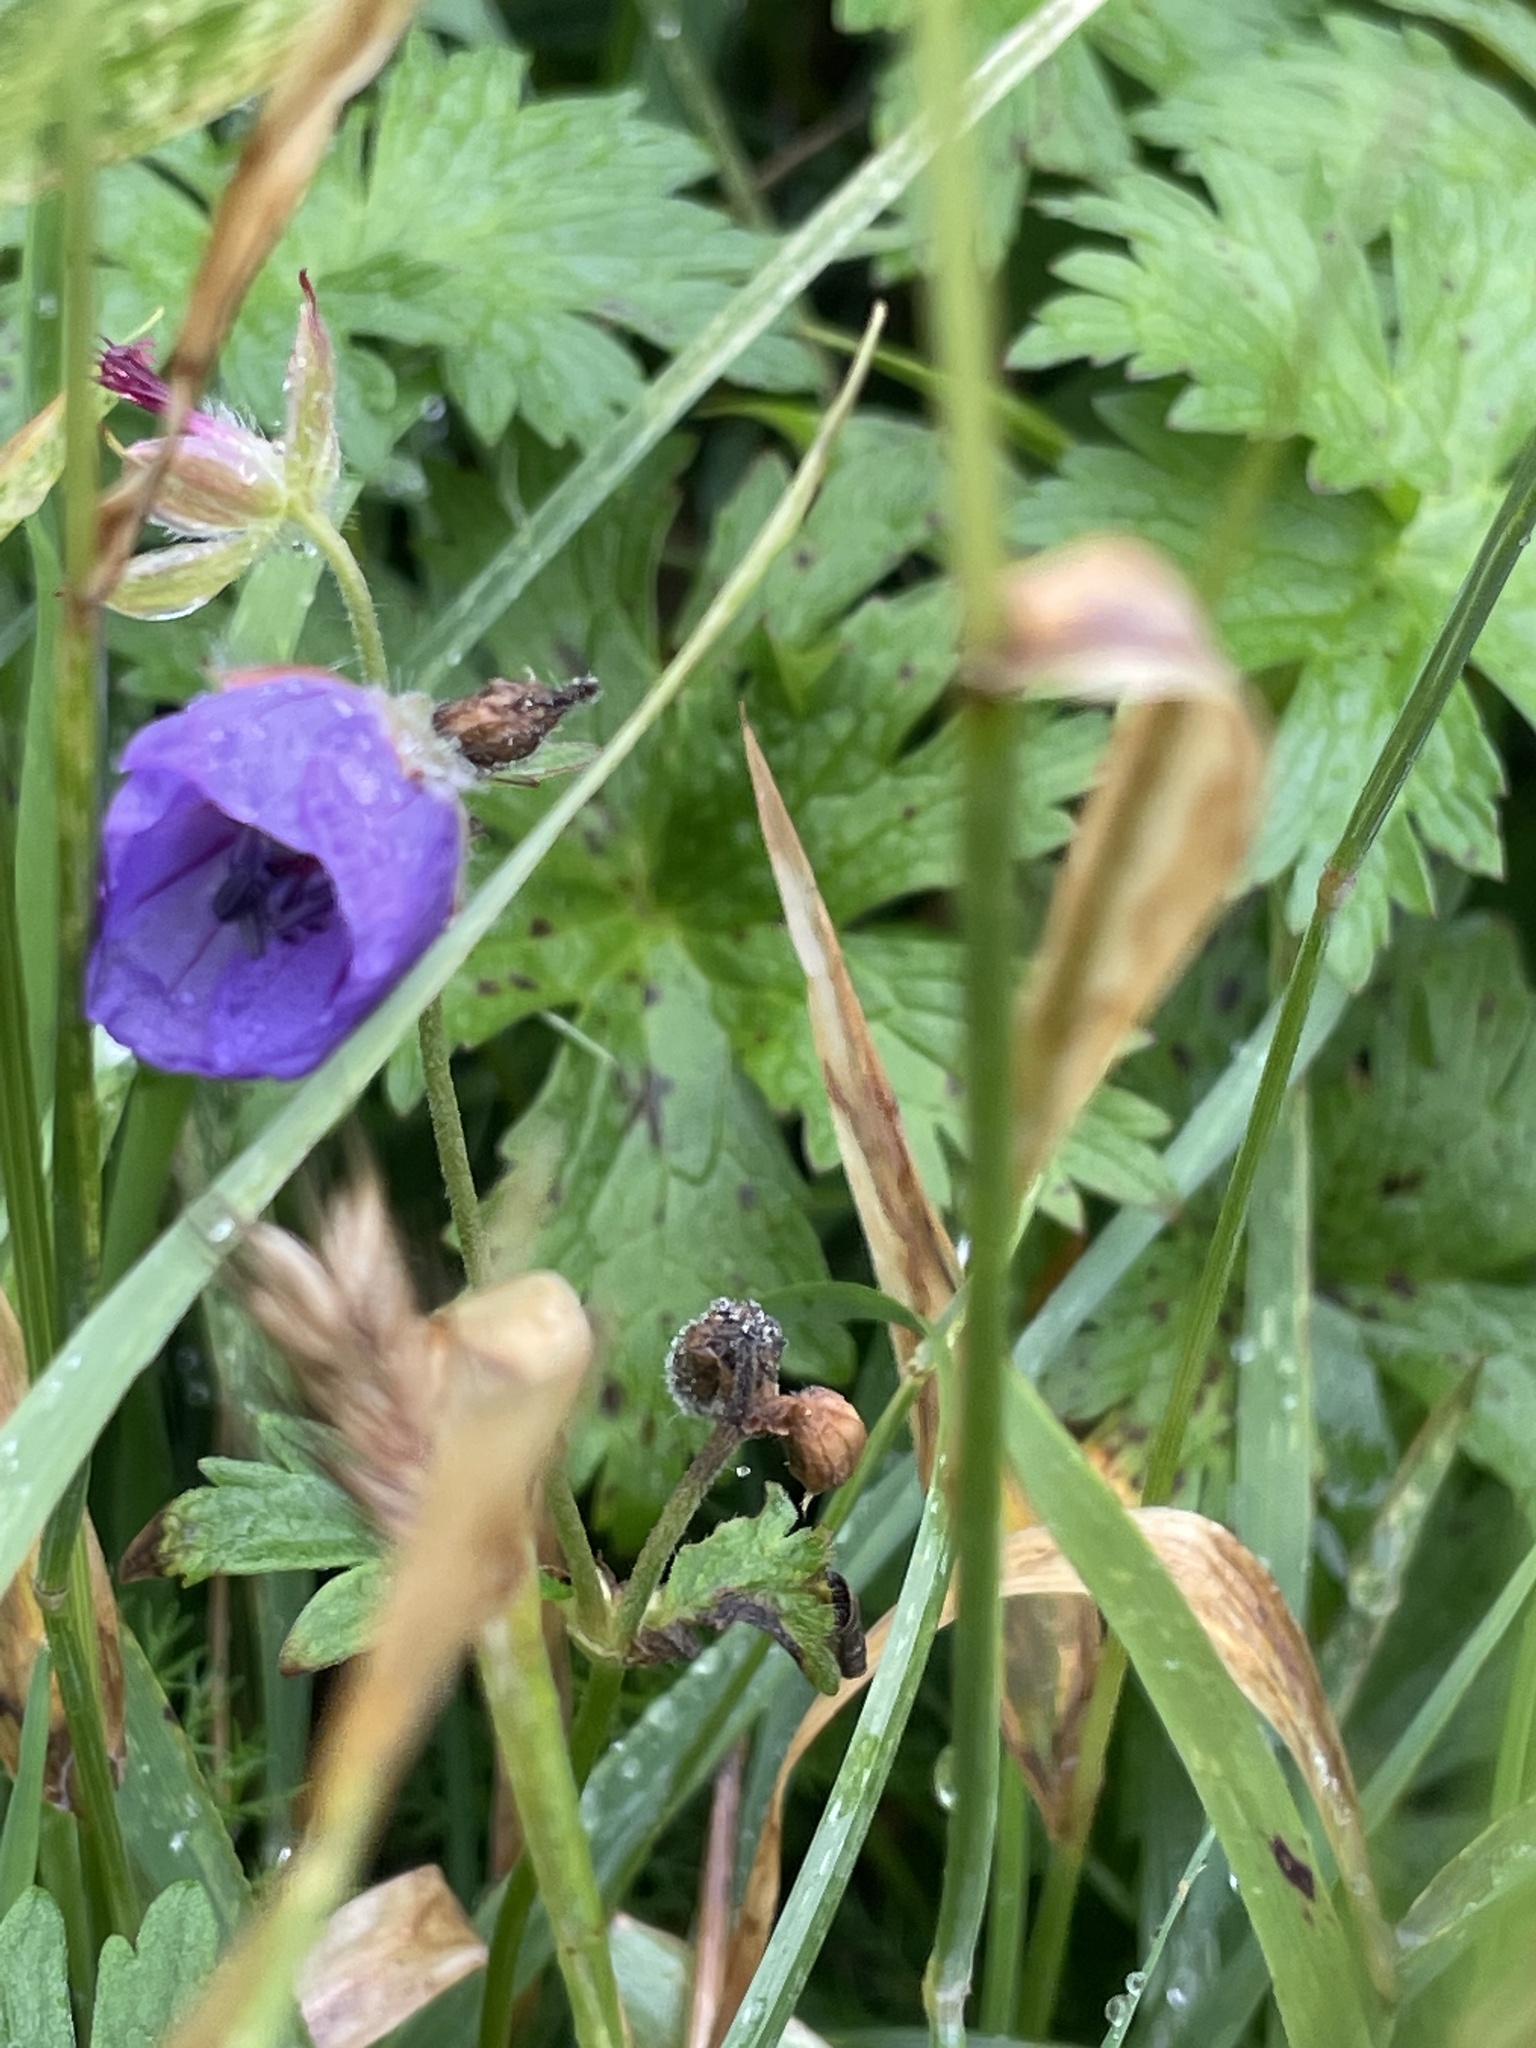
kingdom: Plantae
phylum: Tracheophyta
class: Magnoliopsida
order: Geraniales
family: Geraniaceae
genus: Geranium
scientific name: Geranium erianthum
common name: Northern crane's-bill
